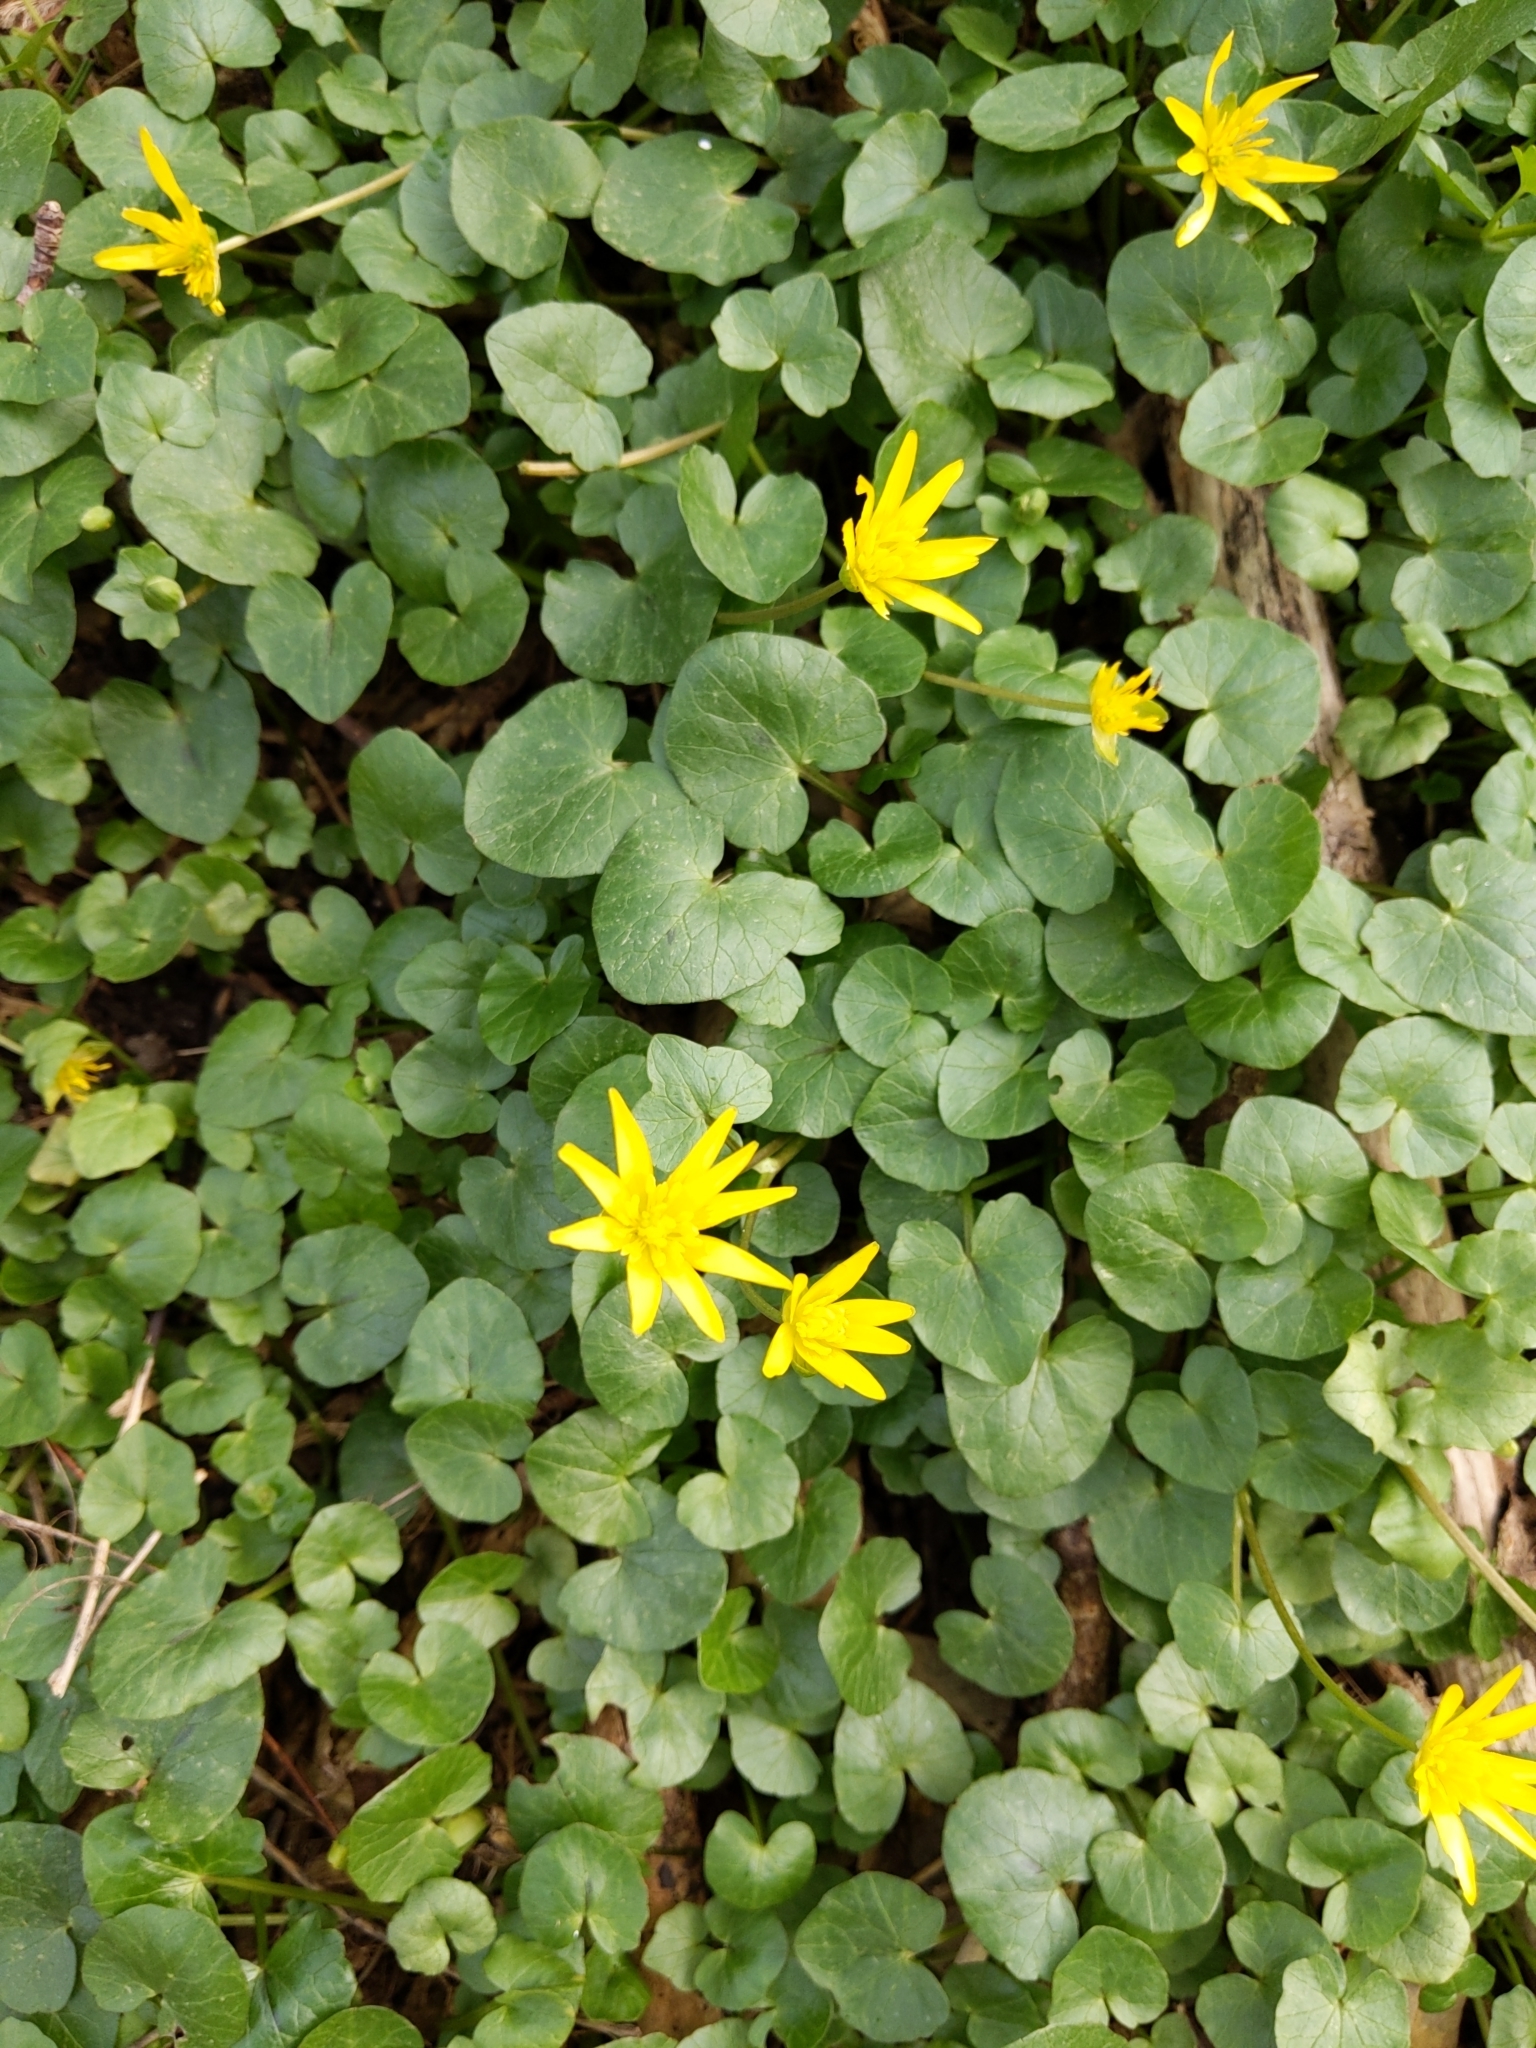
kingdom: Plantae
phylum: Tracheophyta
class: Magnoliopsida
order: Ranunculales
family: Ranunculaceae
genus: Ficaria
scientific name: Ficaria verna
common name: Lesser celandine
